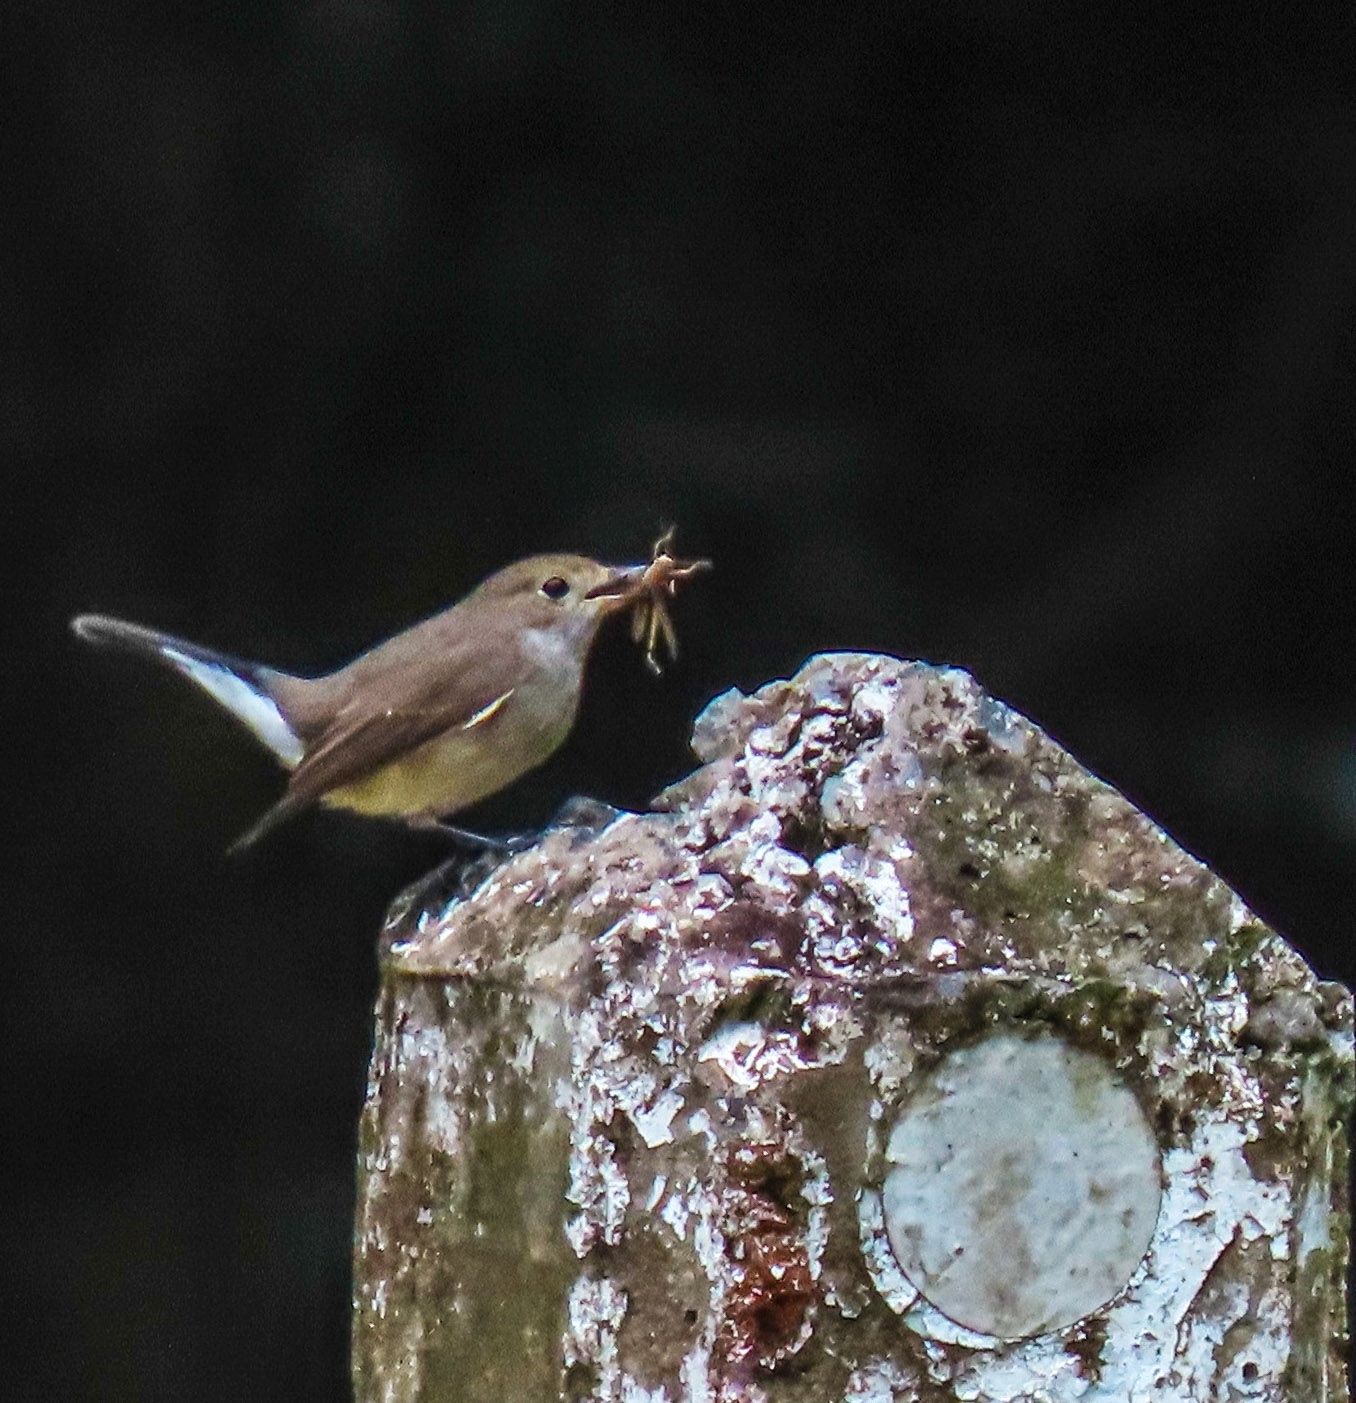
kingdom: Animalia
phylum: Chordata
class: Aves
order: Passeriformes
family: Muscicapidae
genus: Ficedula
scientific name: Ficedula albicilla
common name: Taiga flycatcher
